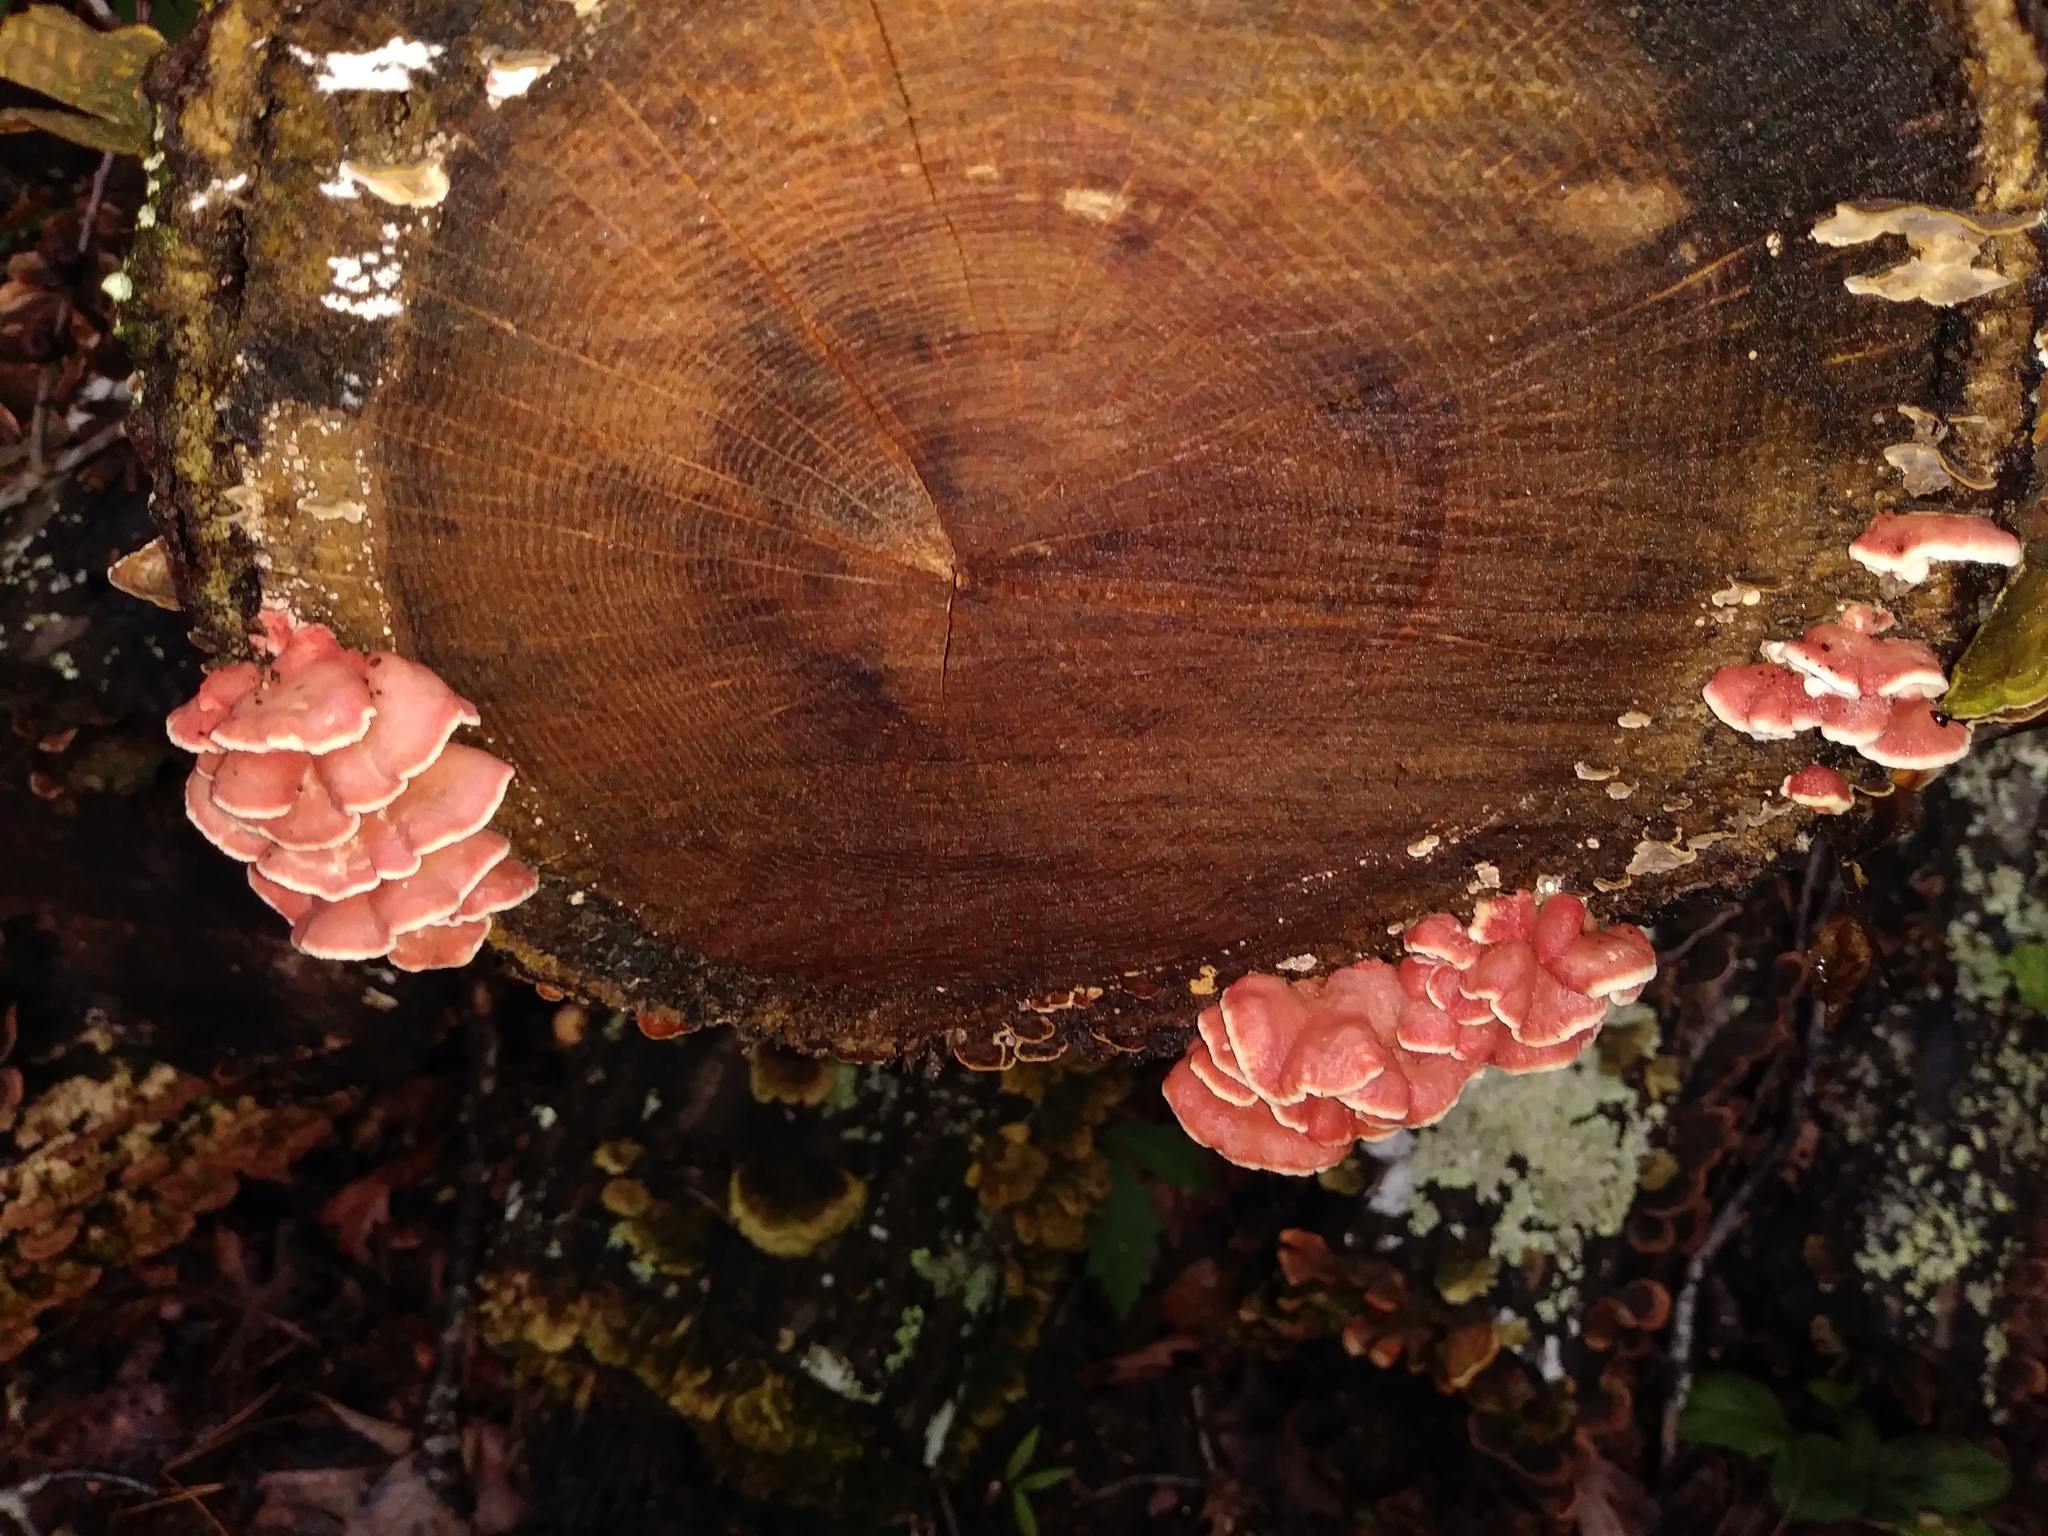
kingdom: Fungi
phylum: Basidiomycota
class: Agaricomycetes
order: Polyporales
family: Irpicaceae
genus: Byssomerulius
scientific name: Byssomerulius incarnatus
